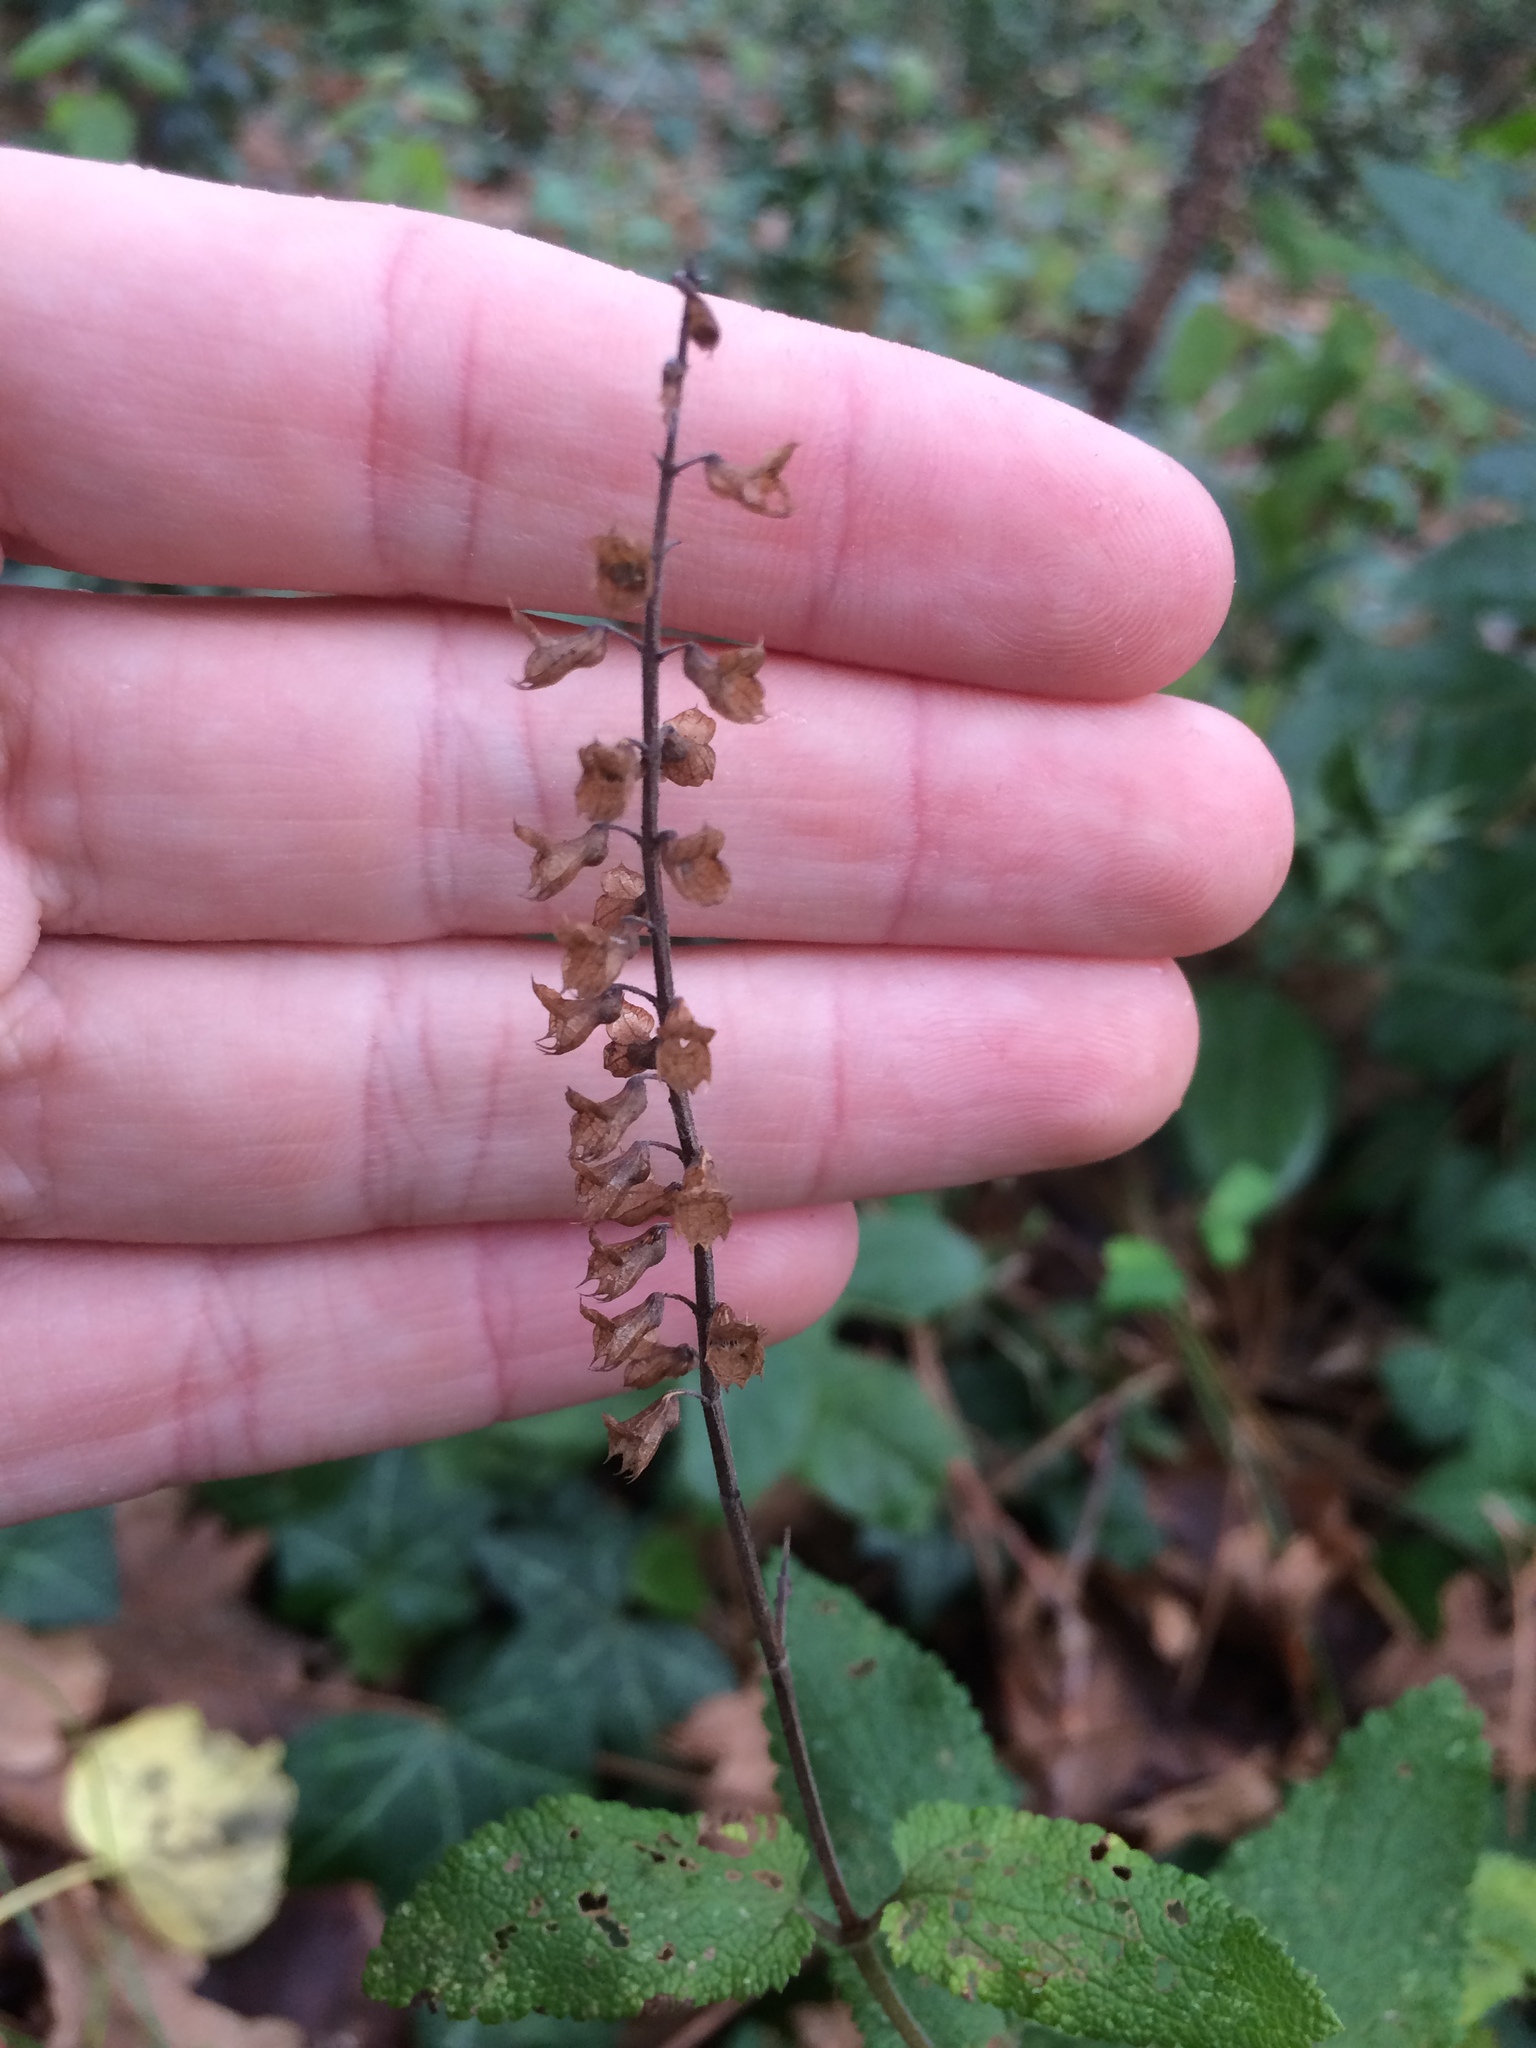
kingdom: Plantae
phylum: Tracheophyta
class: Magnoliopsida
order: Lamiales
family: Lamiaceae
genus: Teucrium
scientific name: Teucrium scorodonia
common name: Woodland germander
